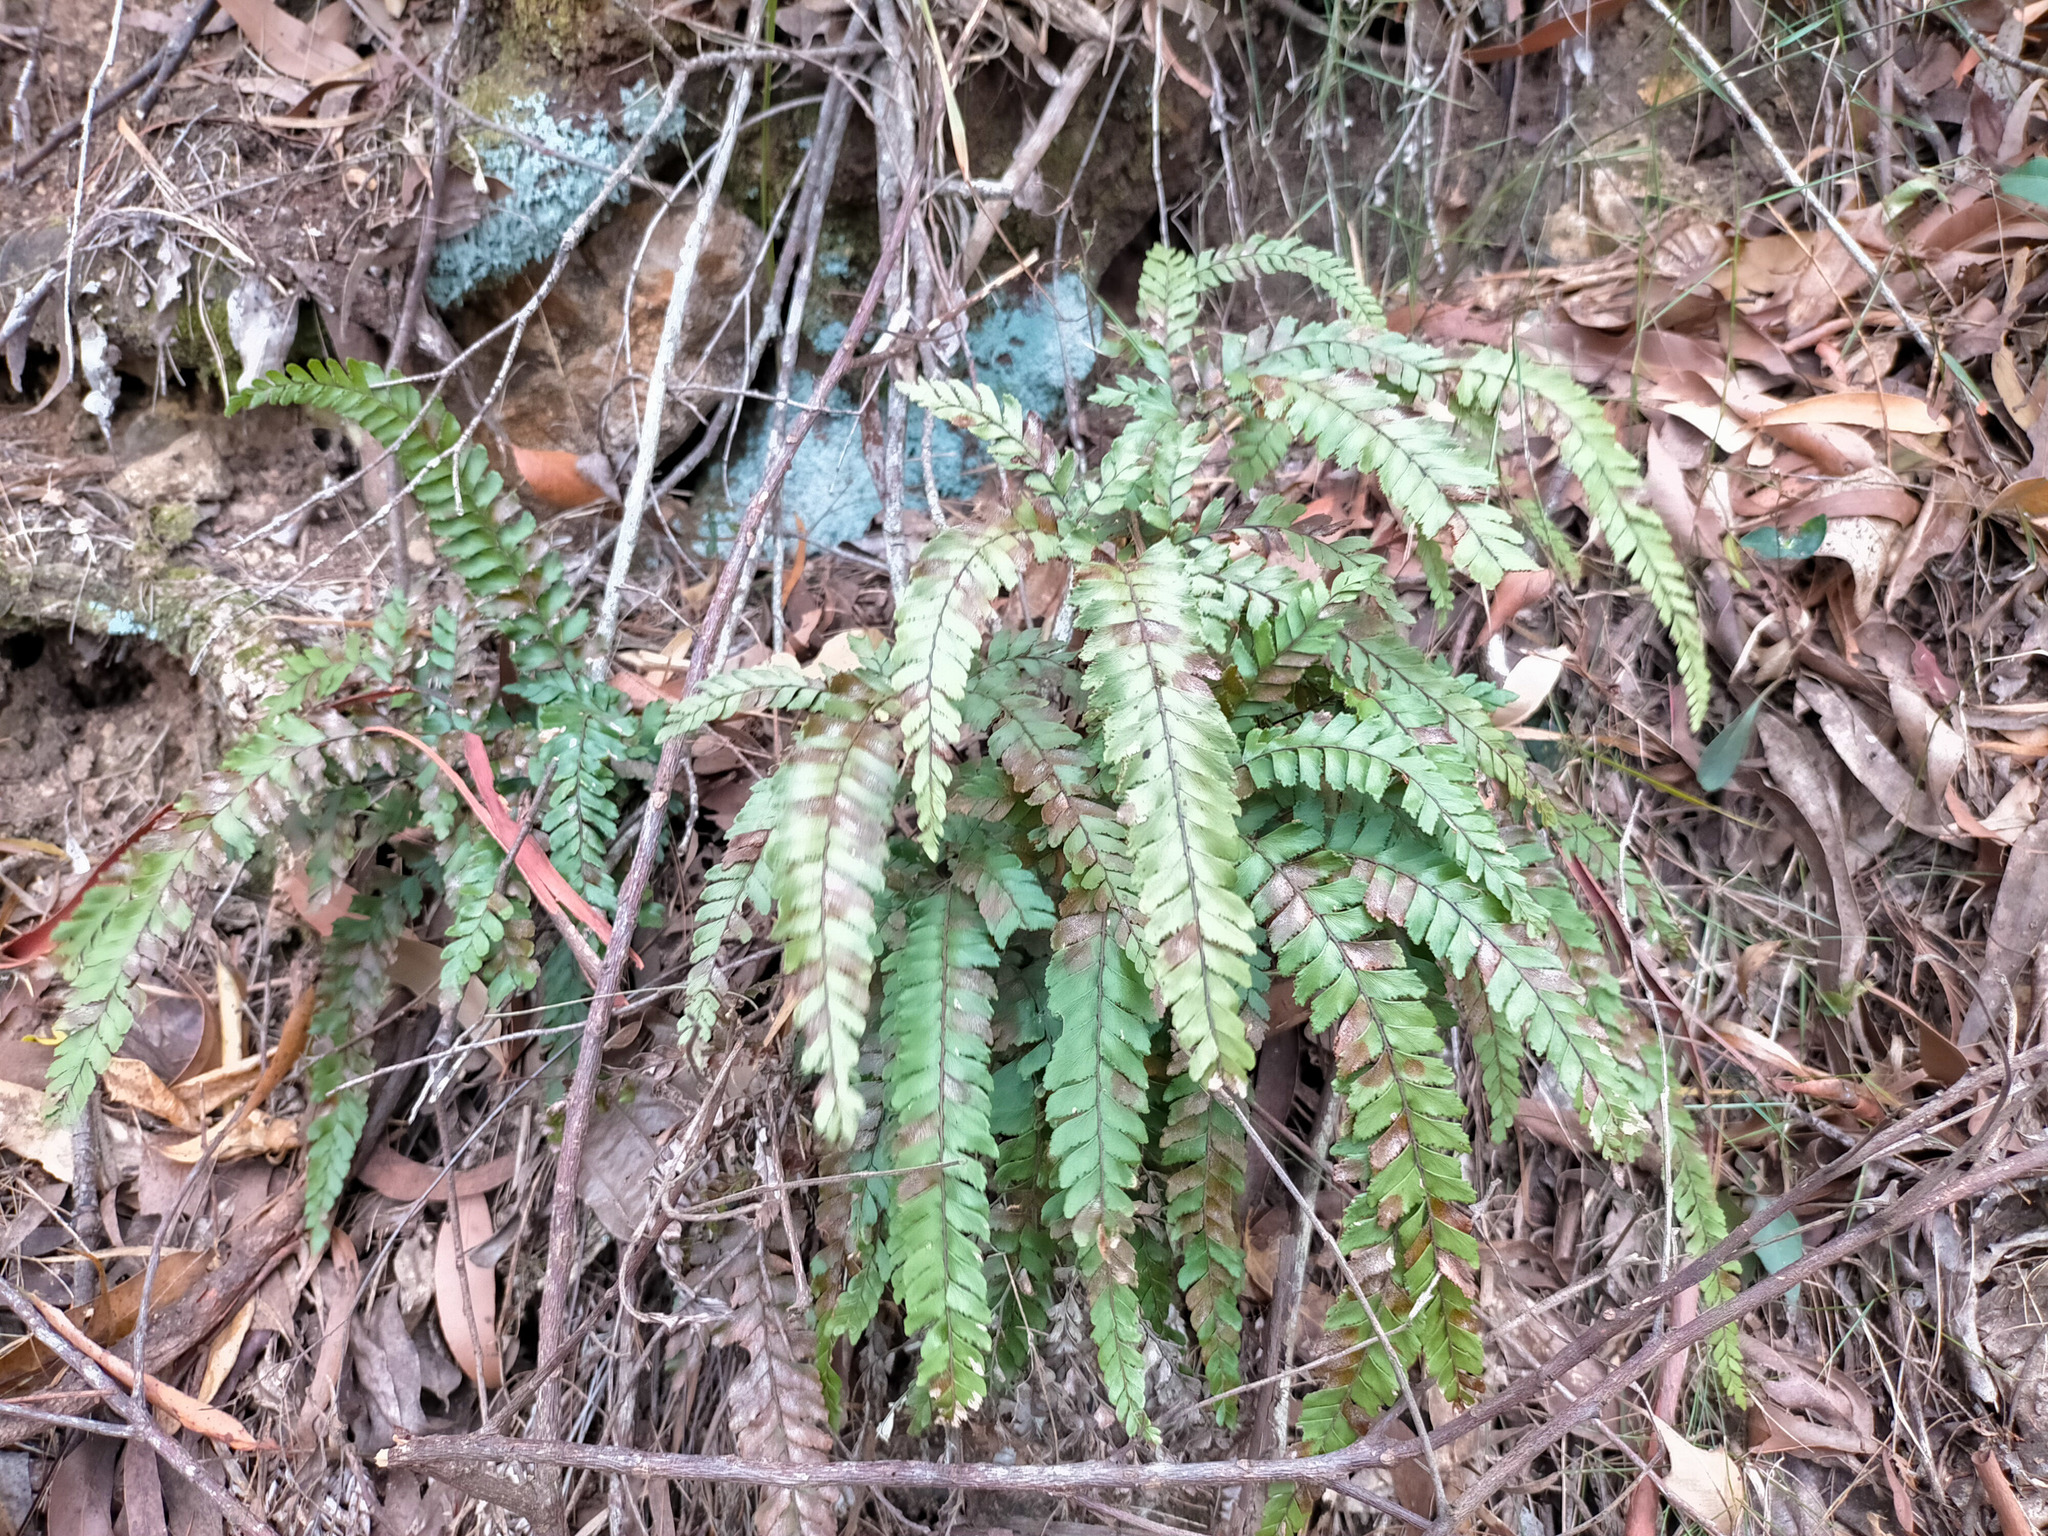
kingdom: Plantae
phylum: Tracheophyta
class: Polypodiopsida
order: Polypodiales
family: Pteridaceae
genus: Adiantum
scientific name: Adiantum hispidulum
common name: Rough maidenhair
